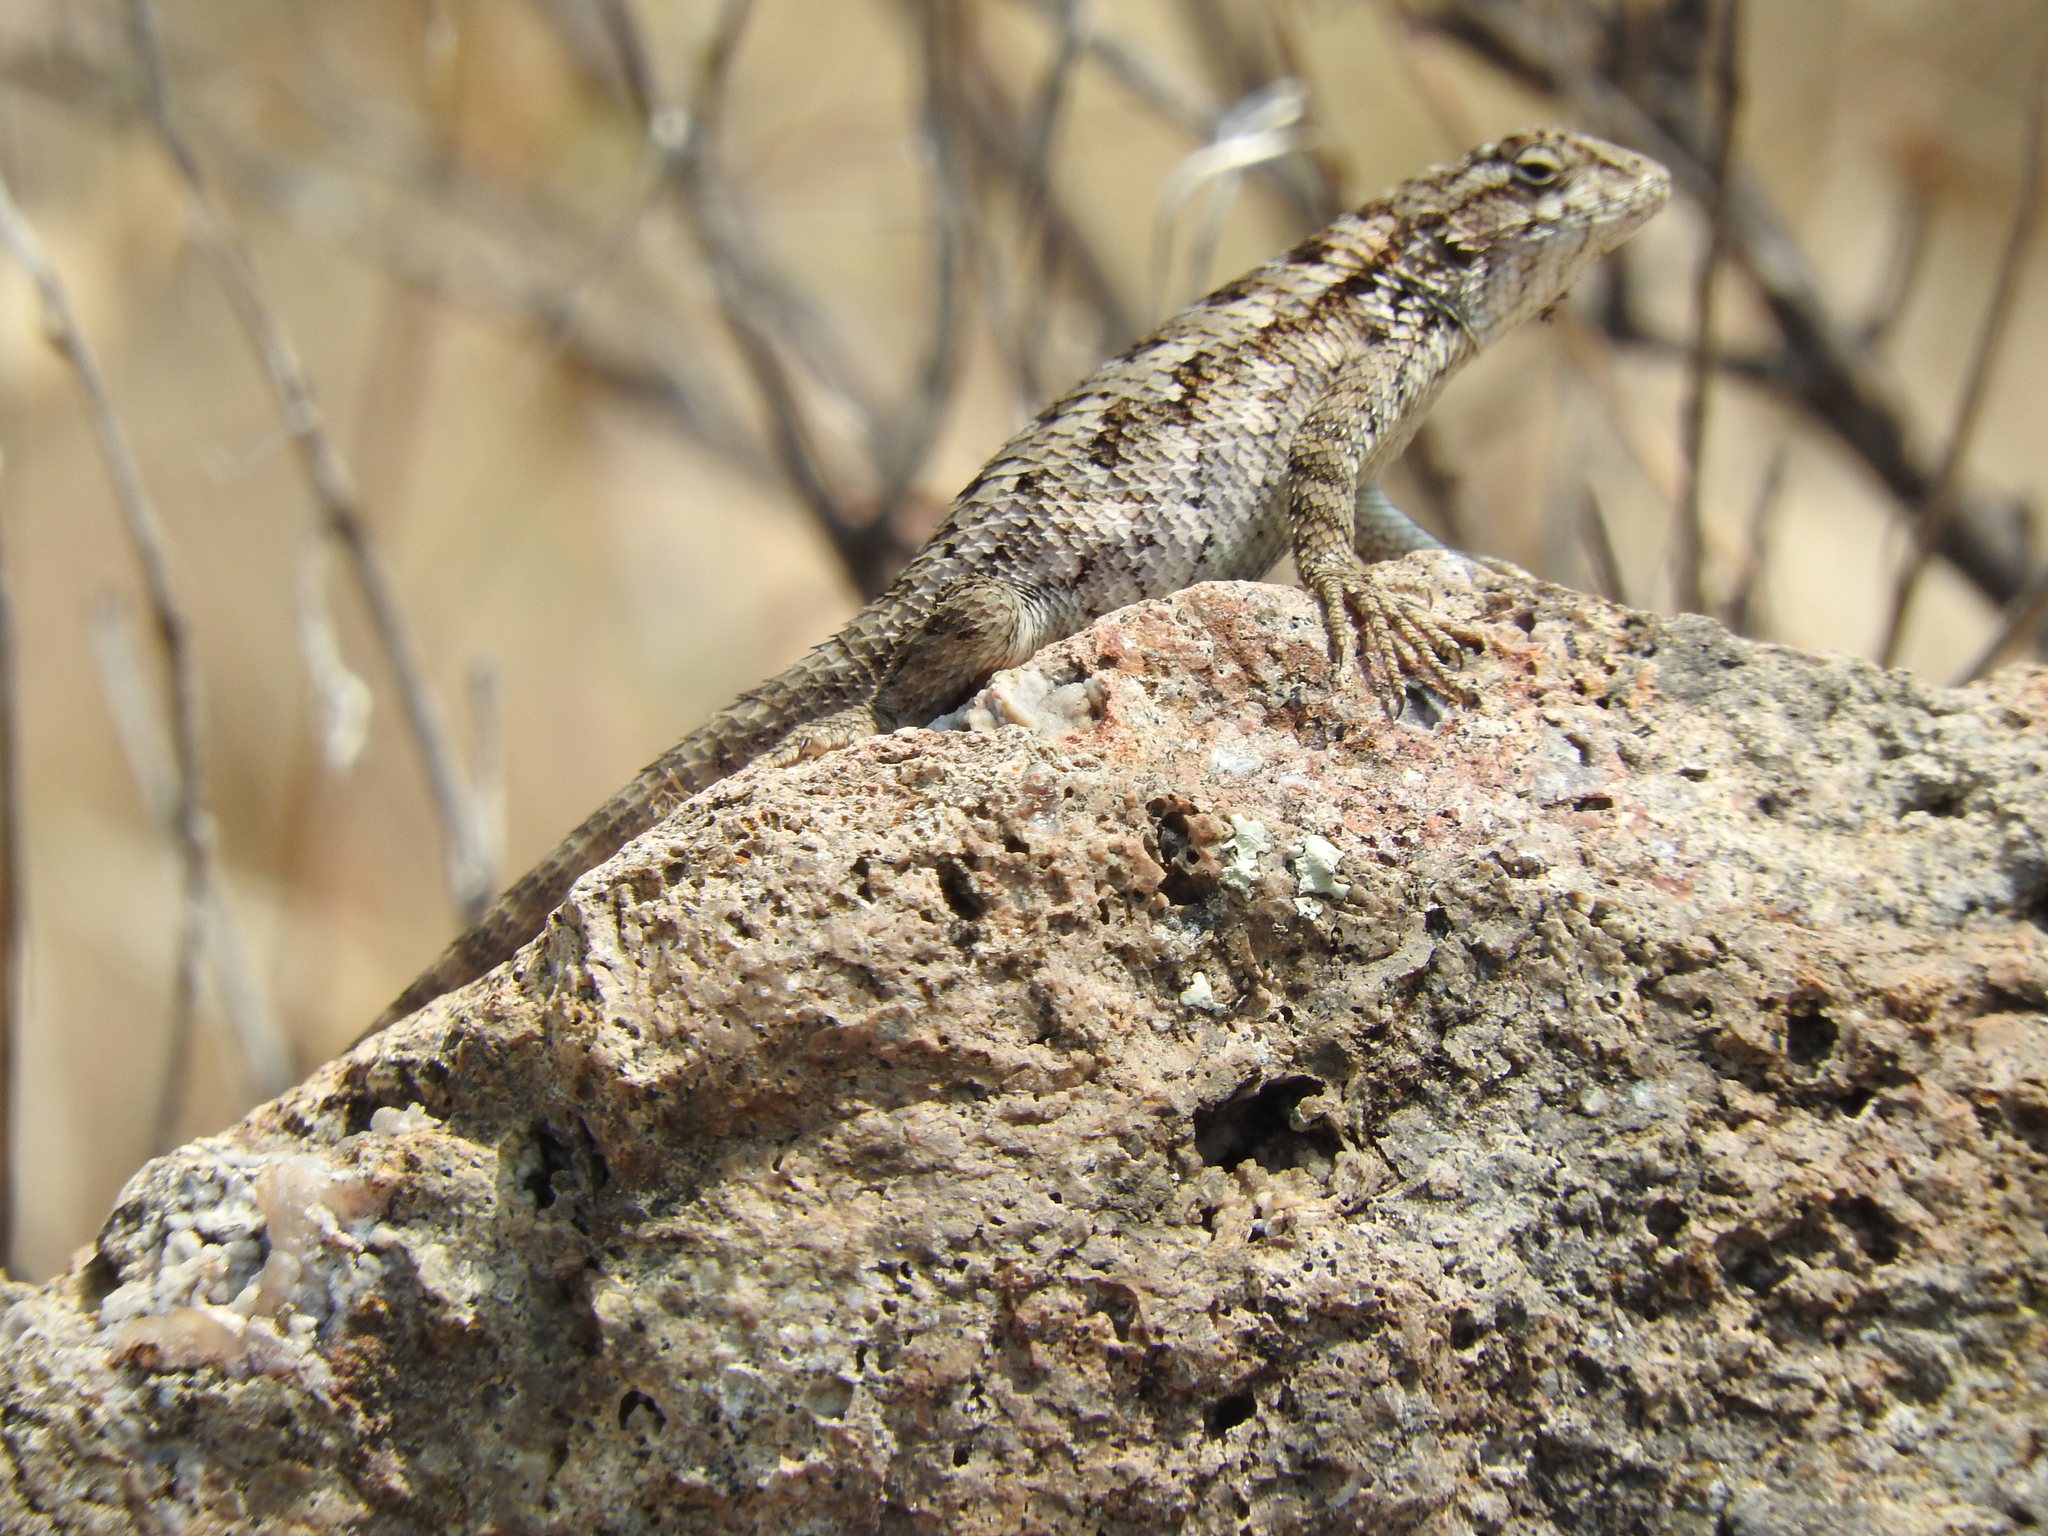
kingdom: Animalia
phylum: Chordata
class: Squamata
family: Phrynosomatidae
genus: Sceloporus
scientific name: Sceloporus spinosus
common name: Blue-spotted spiny lizard [caeruleopunctatus]
